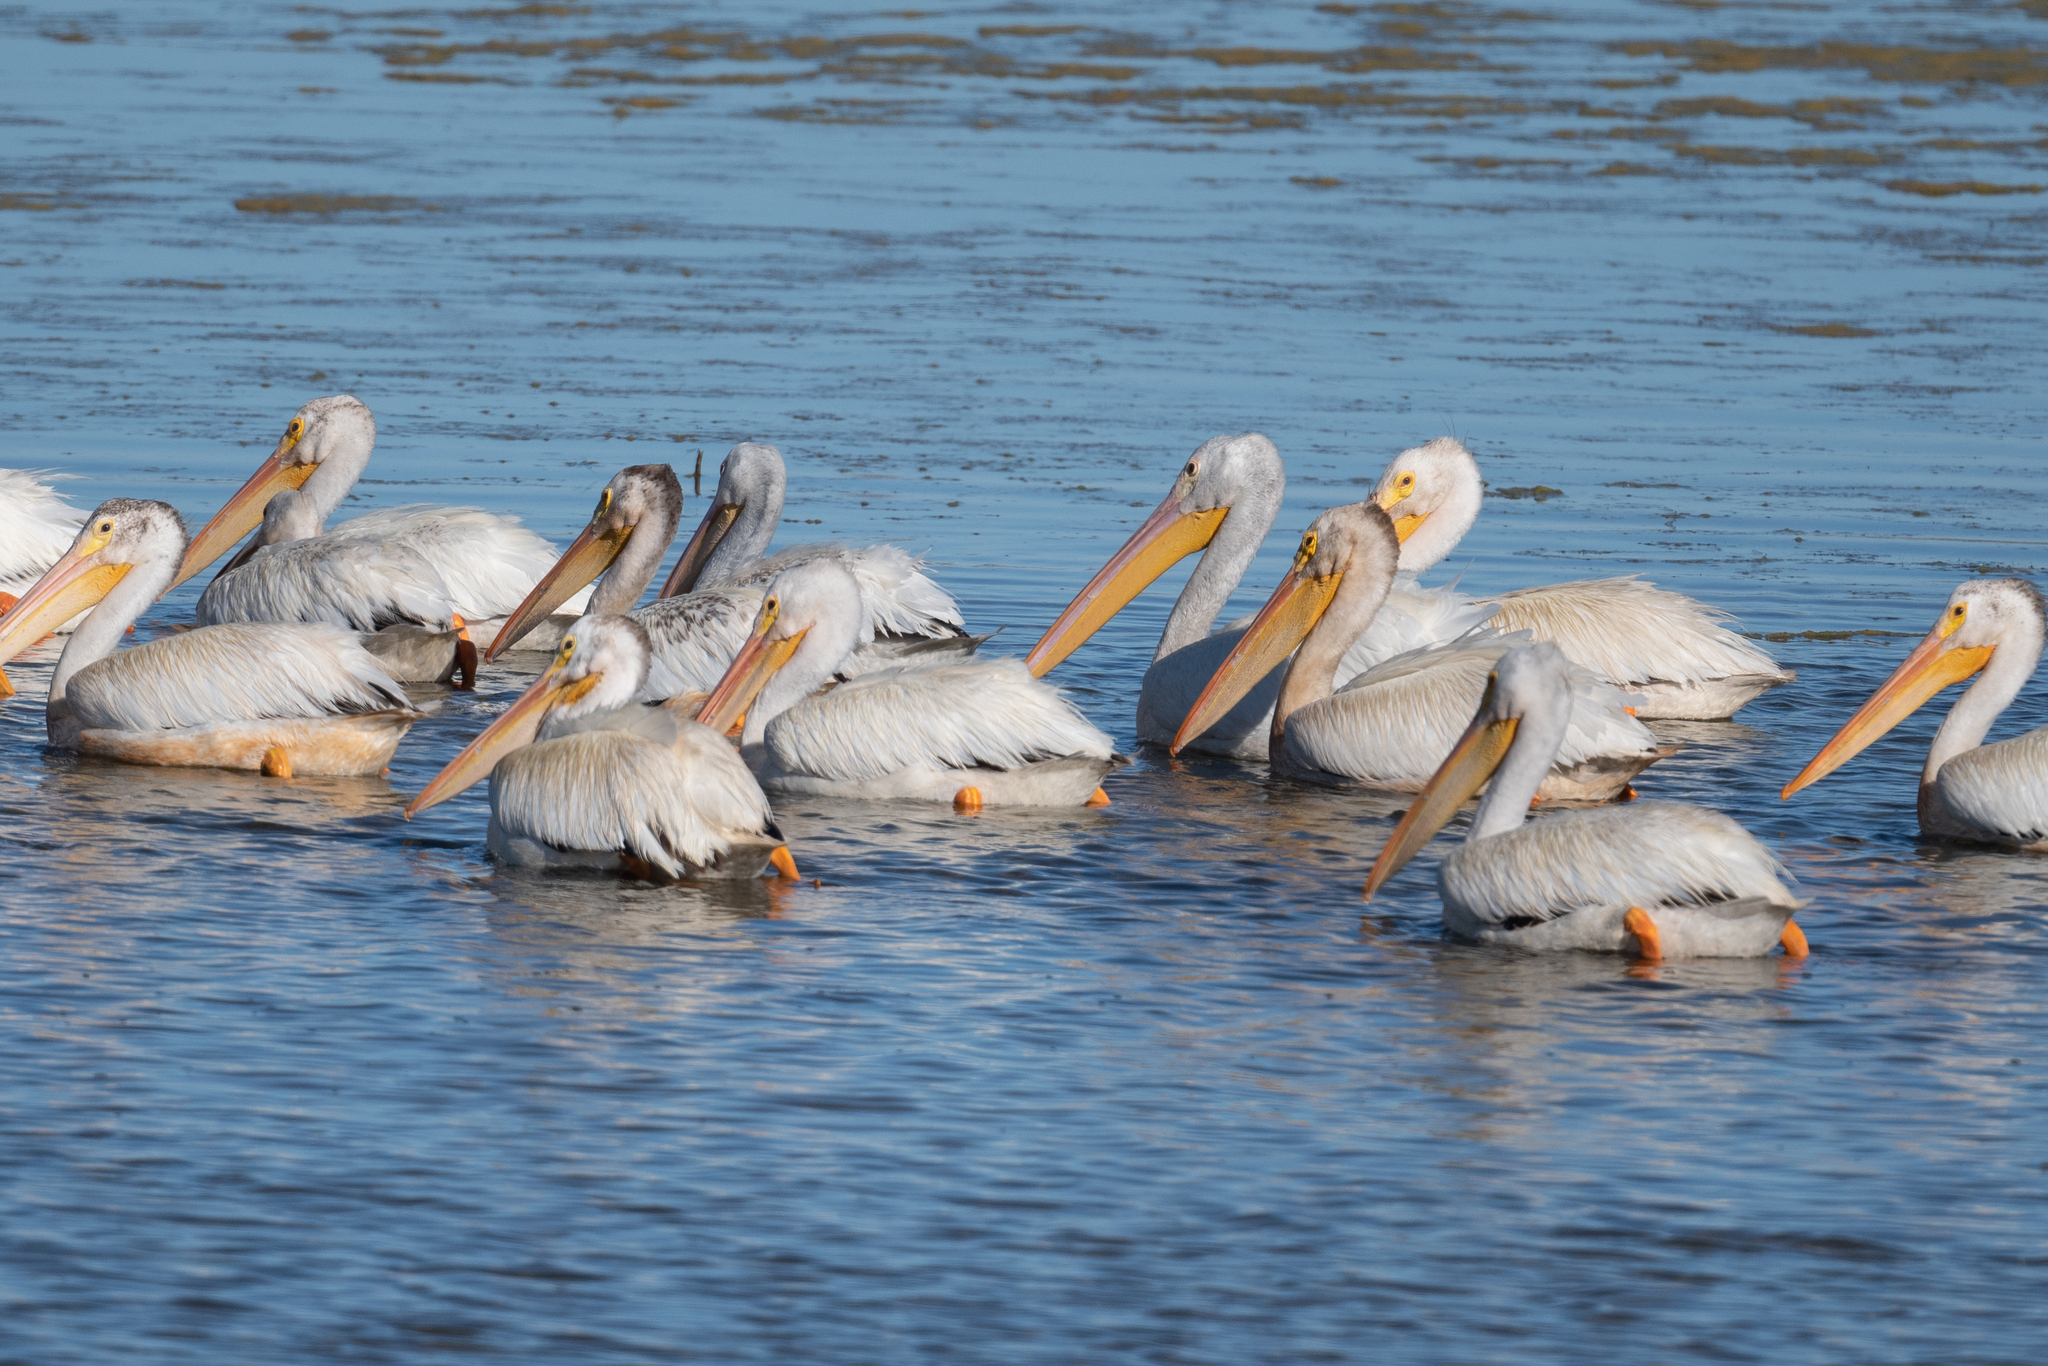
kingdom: Animalia
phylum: Chordata
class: Aves
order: Pelecaniformes
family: Pelecanidae
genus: Pelecanus
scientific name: Pelecanus erythrorhynchos
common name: American white pelican
